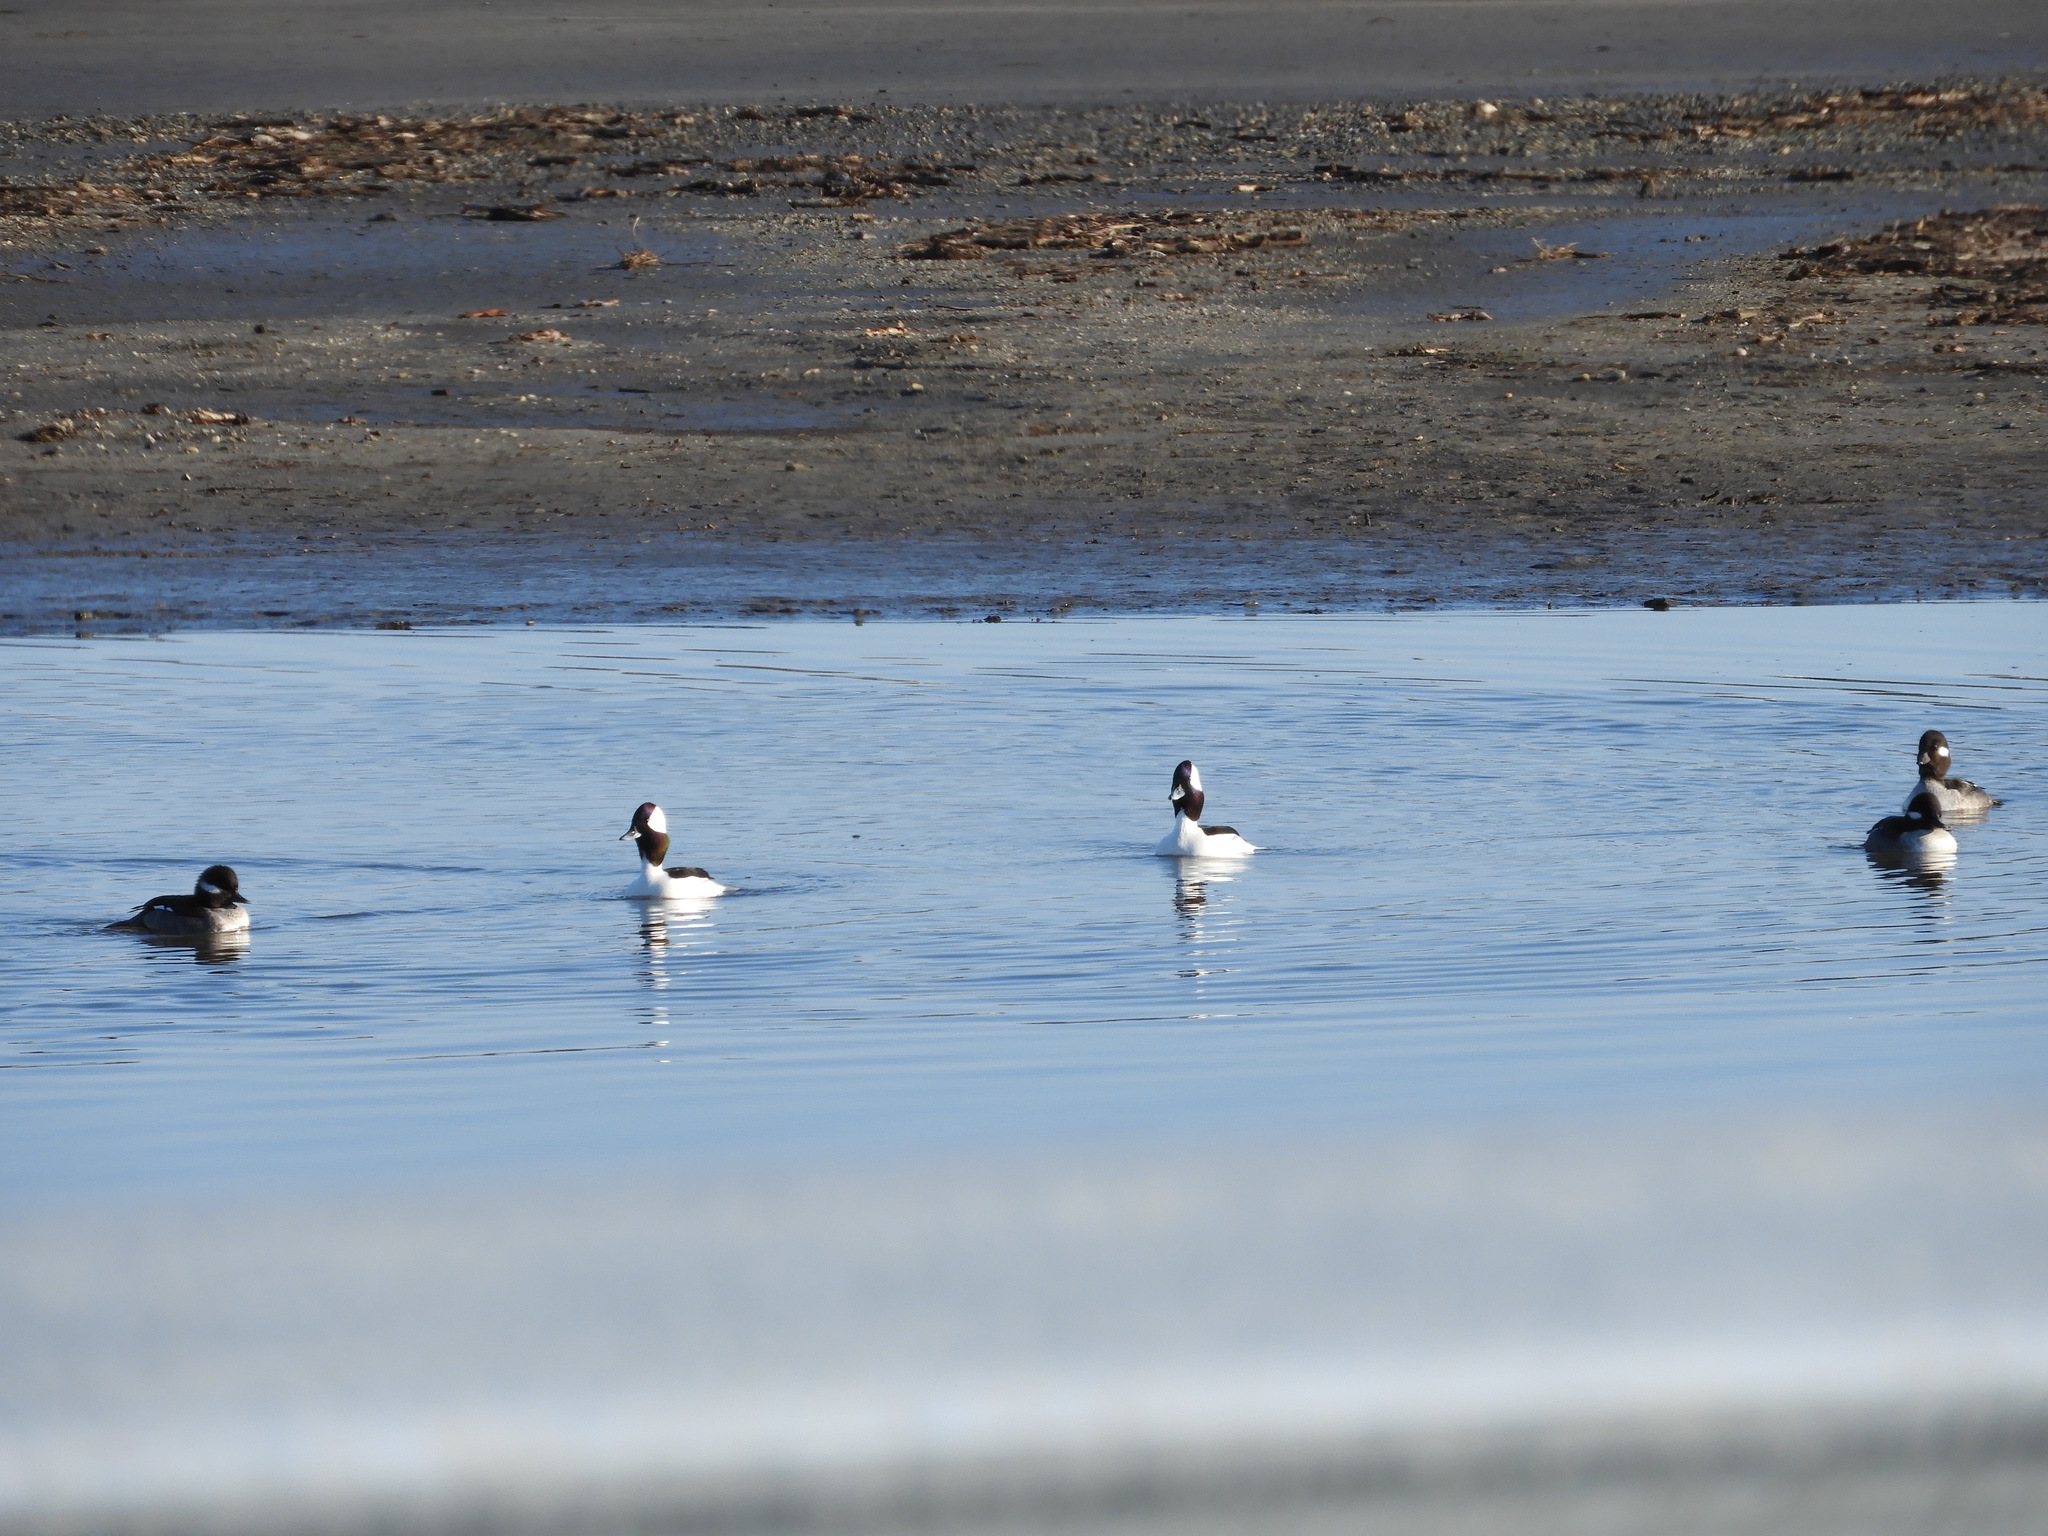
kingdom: Animalia
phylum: Chordata
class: Aves
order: Anseriformes
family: Anatidae
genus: Bucephala
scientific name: Bucephala albeola
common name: Bufflehead
